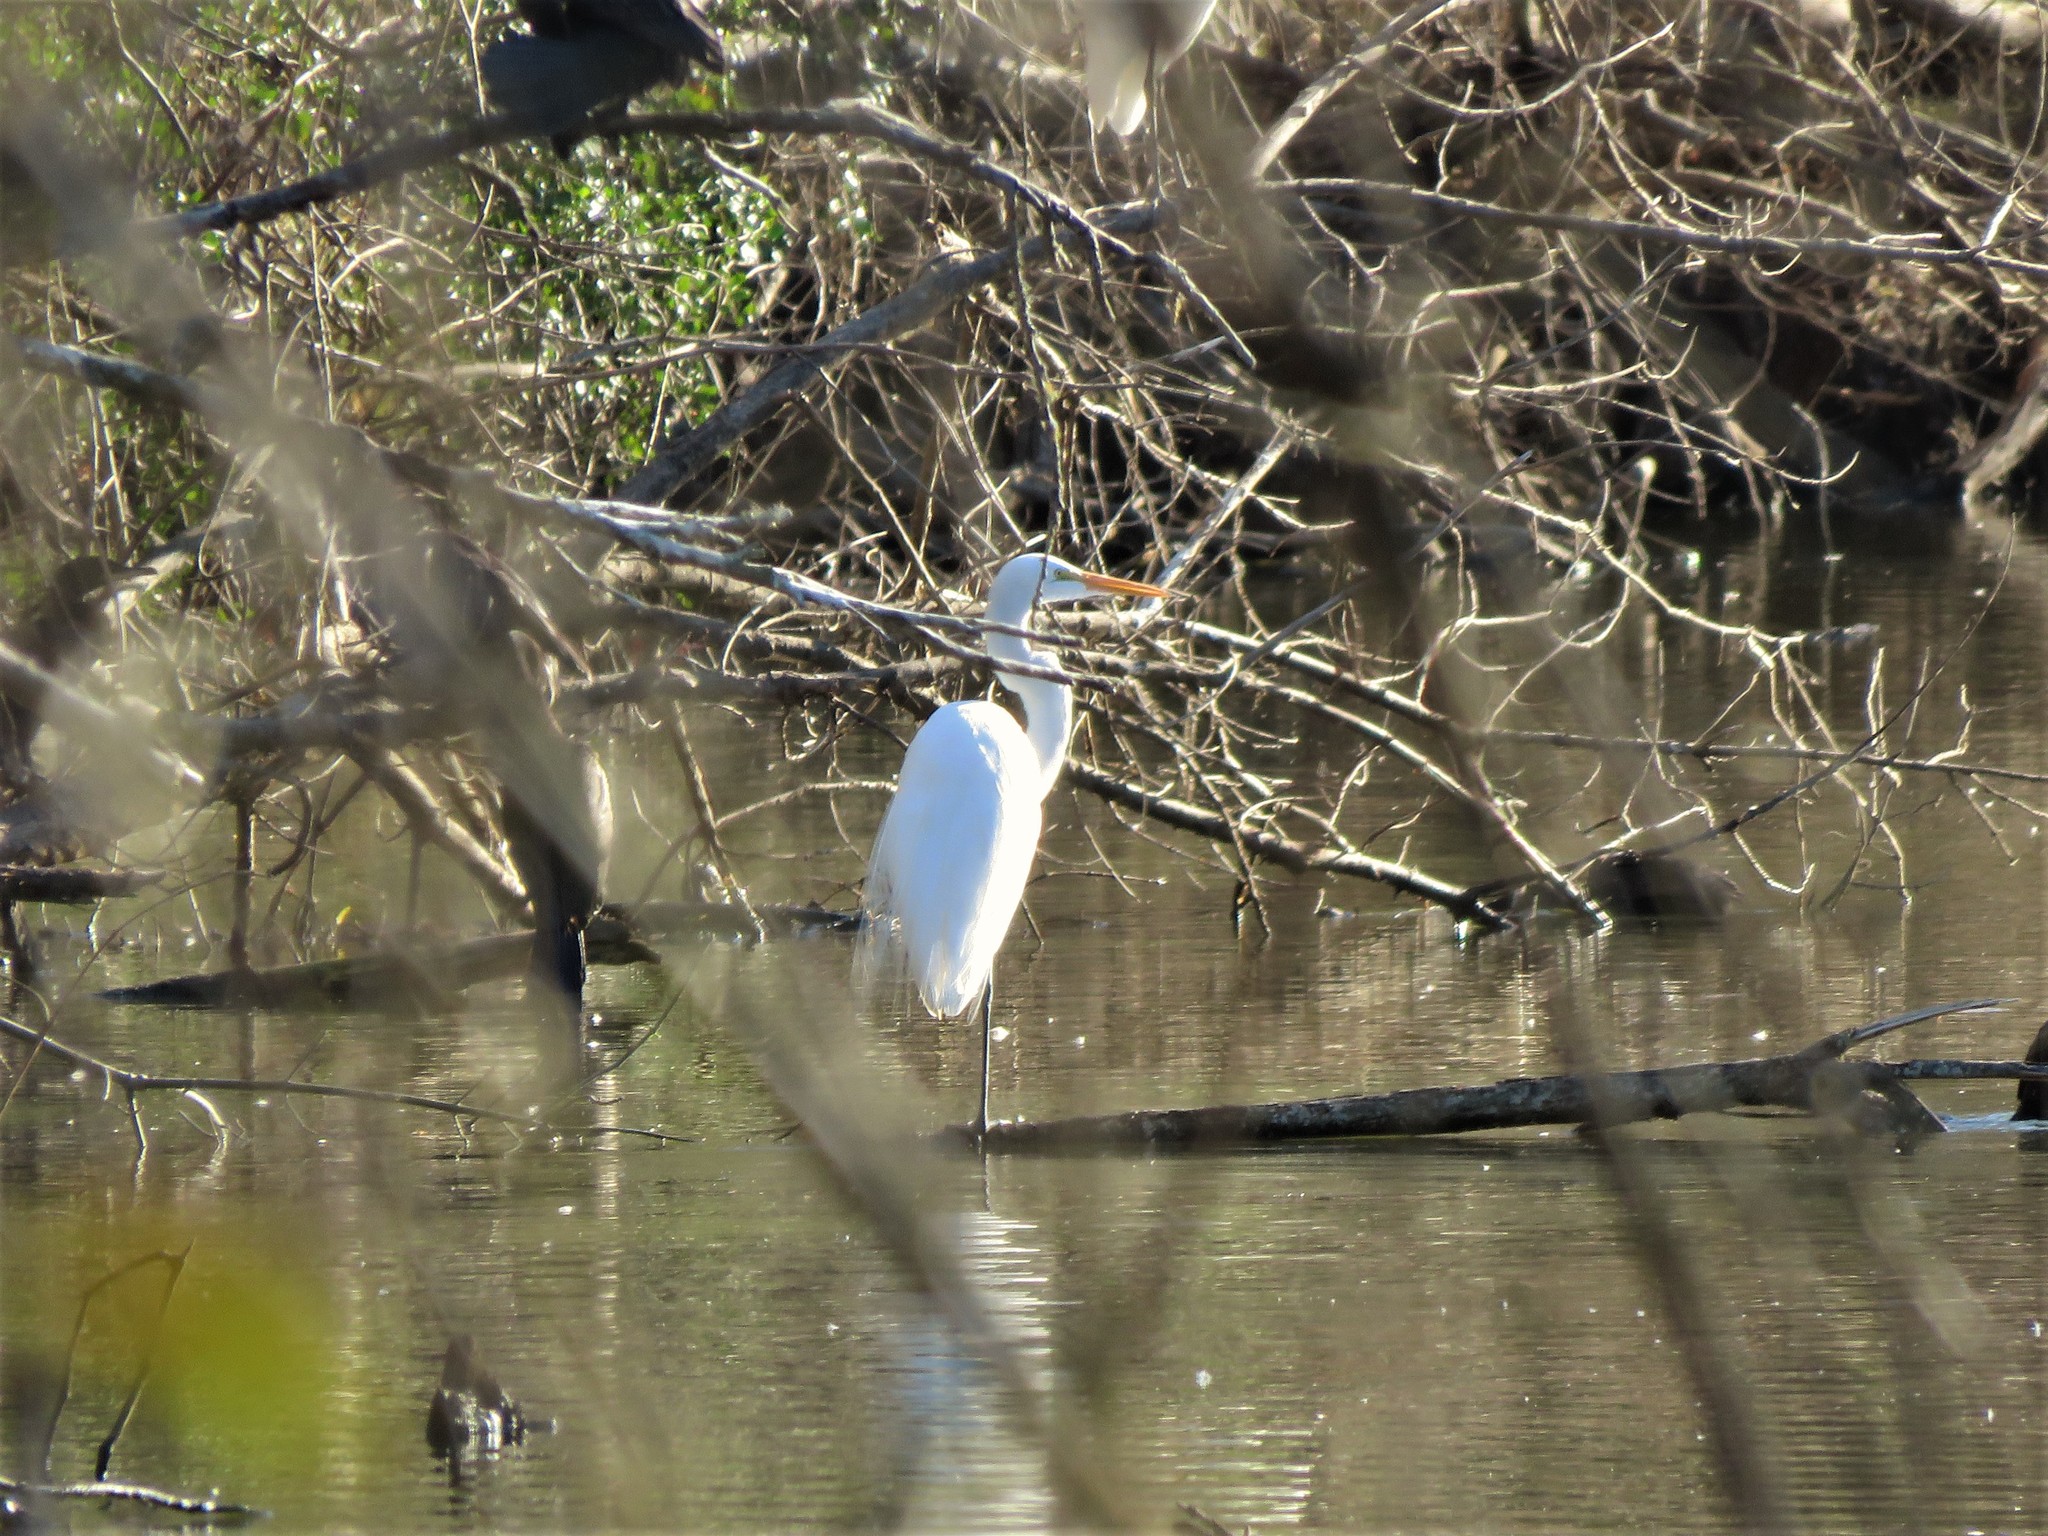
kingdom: Animalia
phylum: Chordata
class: Aves
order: Pelecaniformes
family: Ardeidae
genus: Ardea
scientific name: Ardea alba
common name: Great egret
